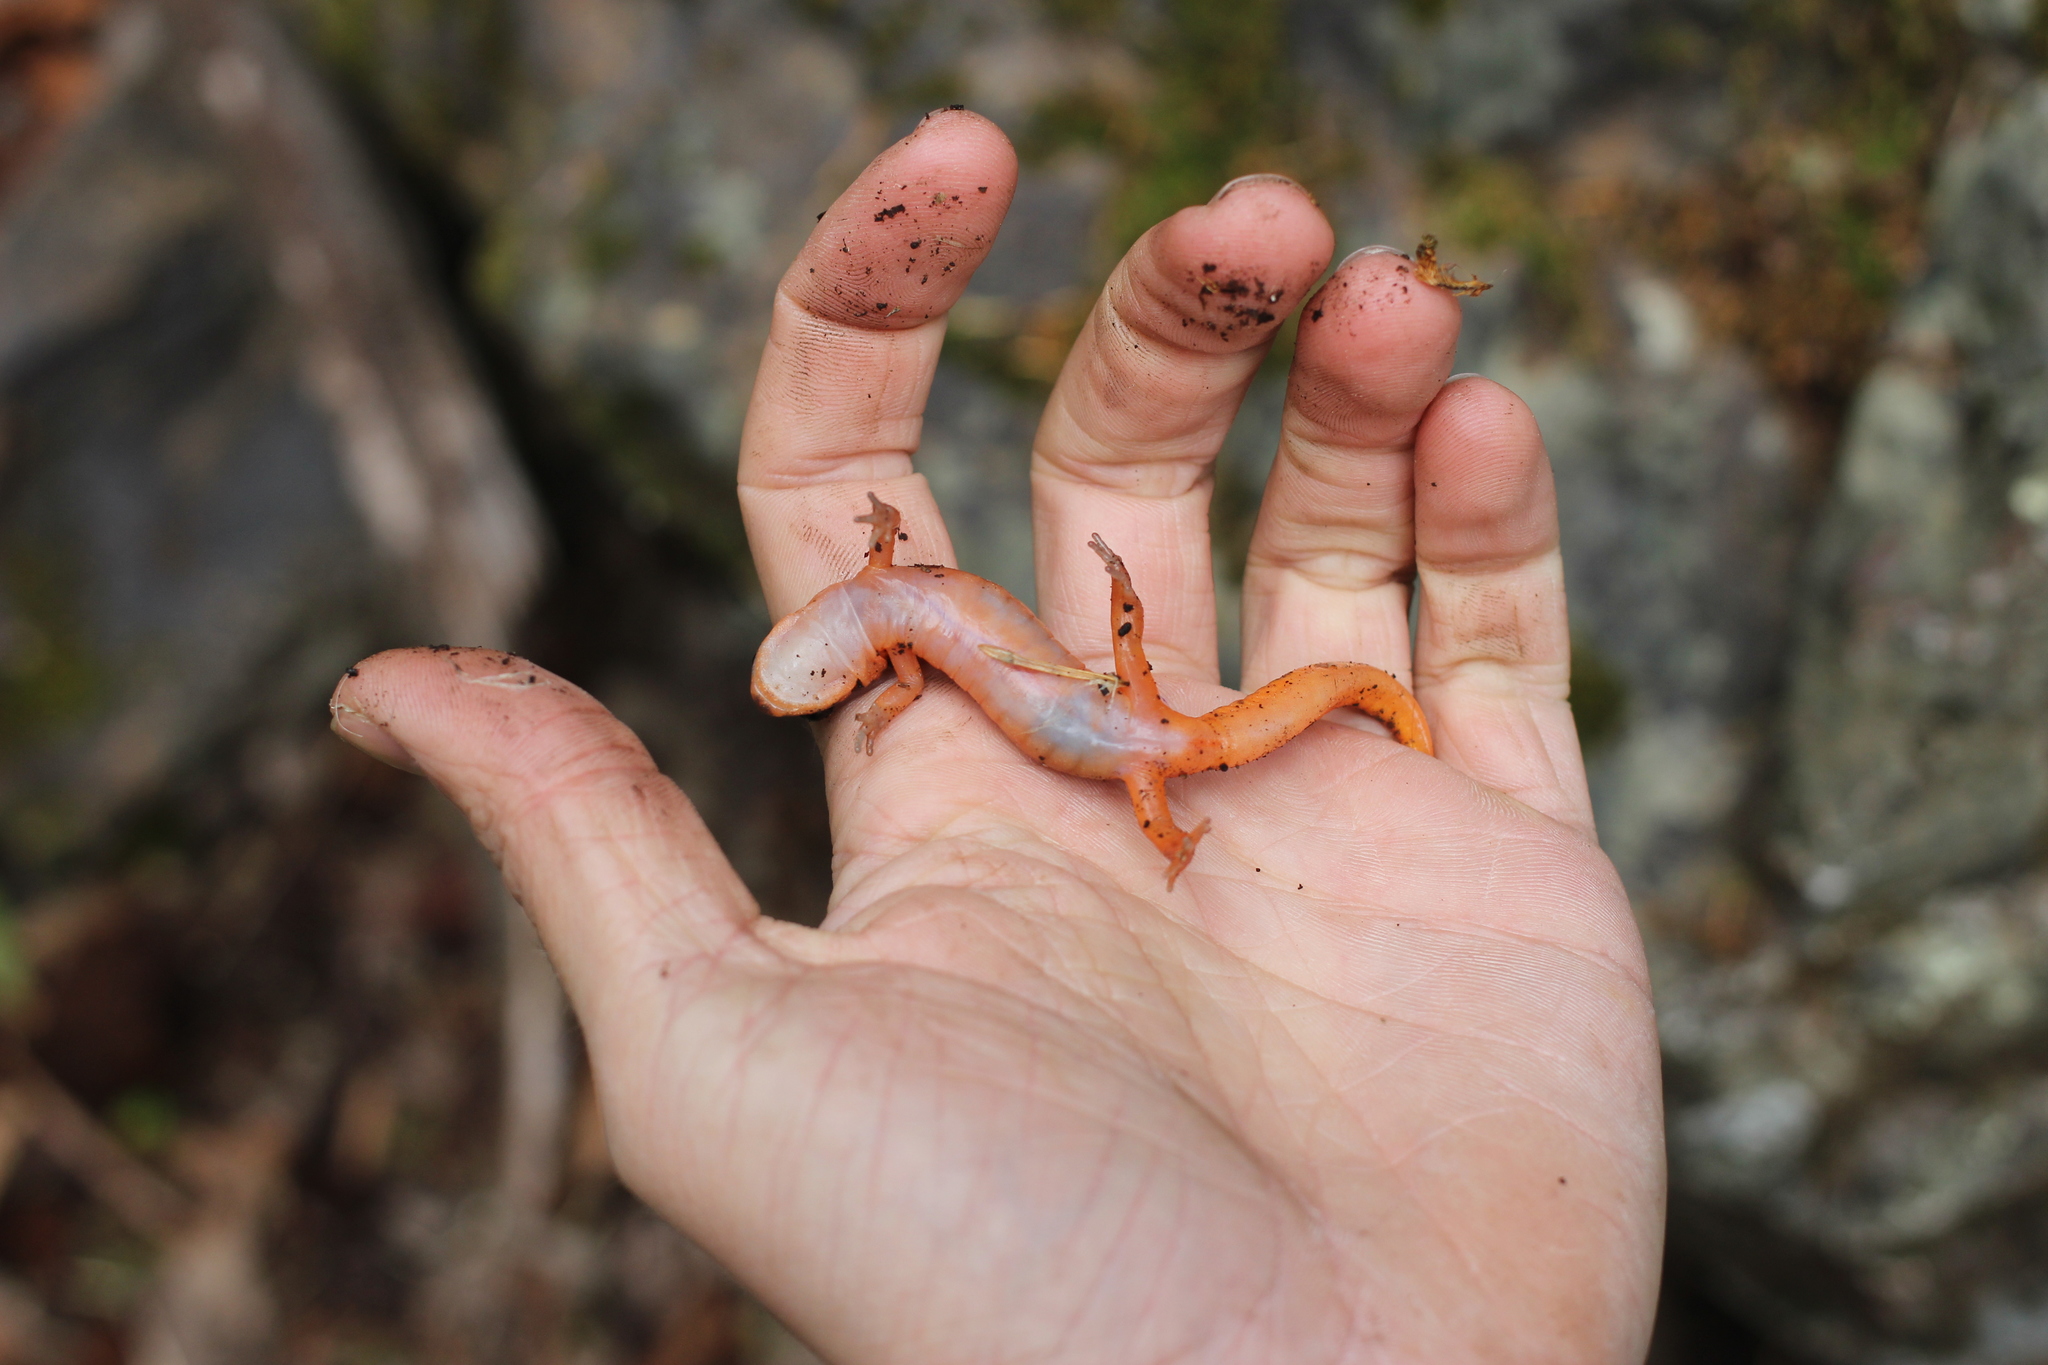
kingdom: Animalia
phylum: Chordata
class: Amphibia
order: Caudata
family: Plethodontidae
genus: Ensatina
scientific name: Ensatina eschscholtzii
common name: Ensatina
